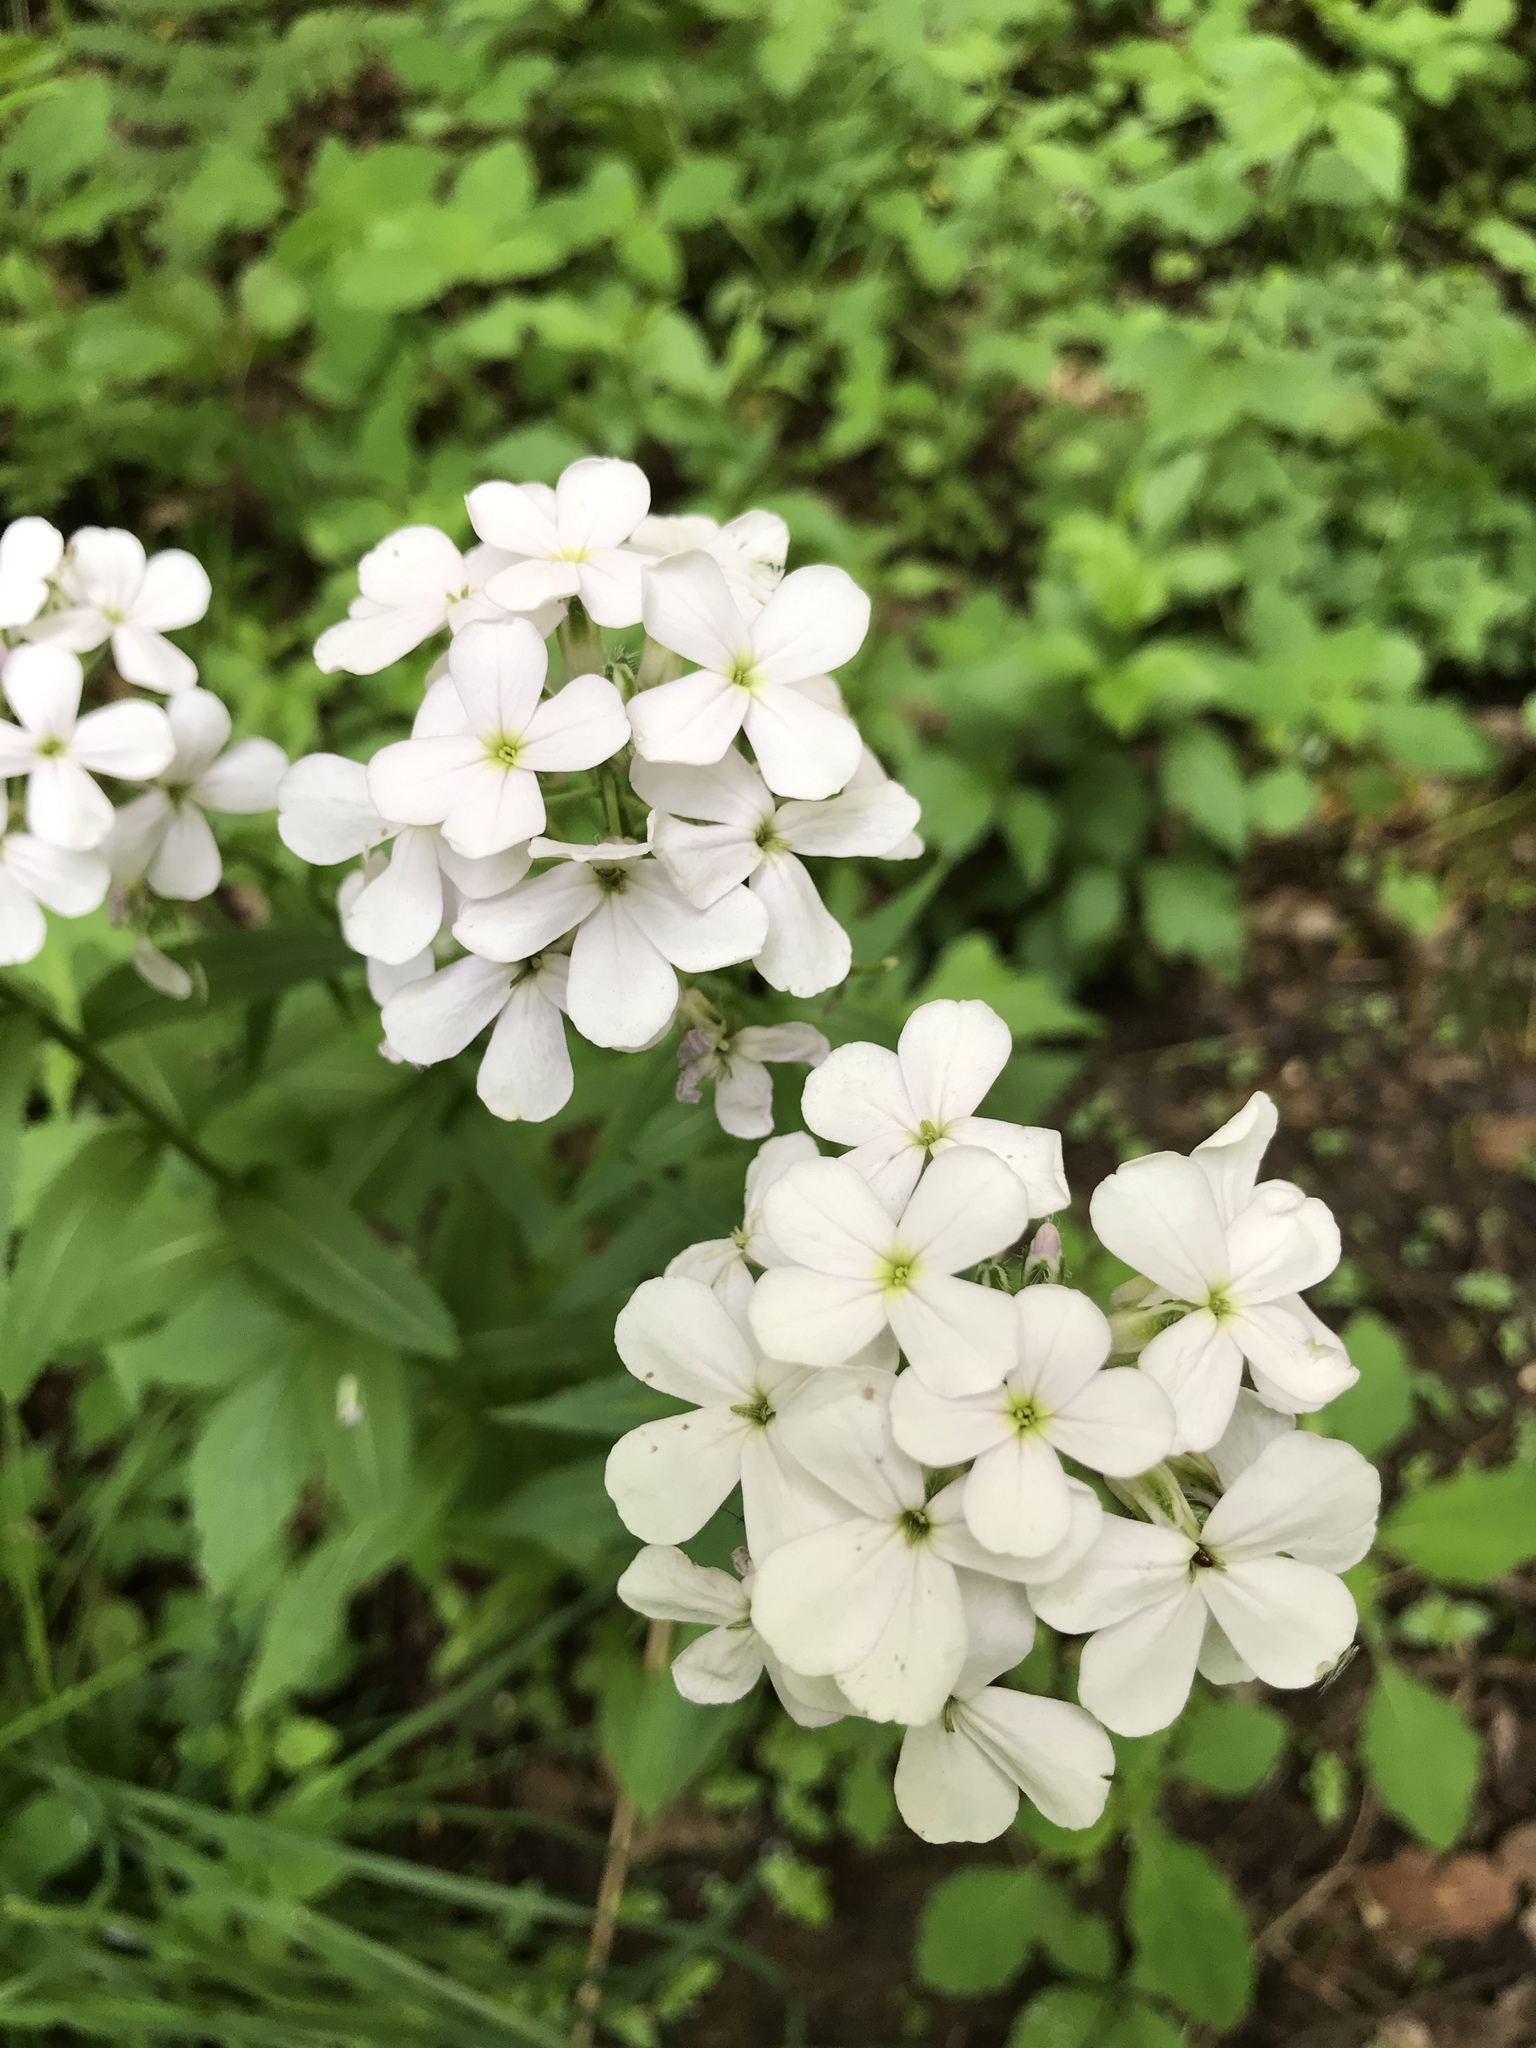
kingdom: Plantae
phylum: Tracheophyta
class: Magnoliopsida
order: Brassicales
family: Brassicaceae
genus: Hesperis
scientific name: Hesperis matronalis
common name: Dame's-violet
